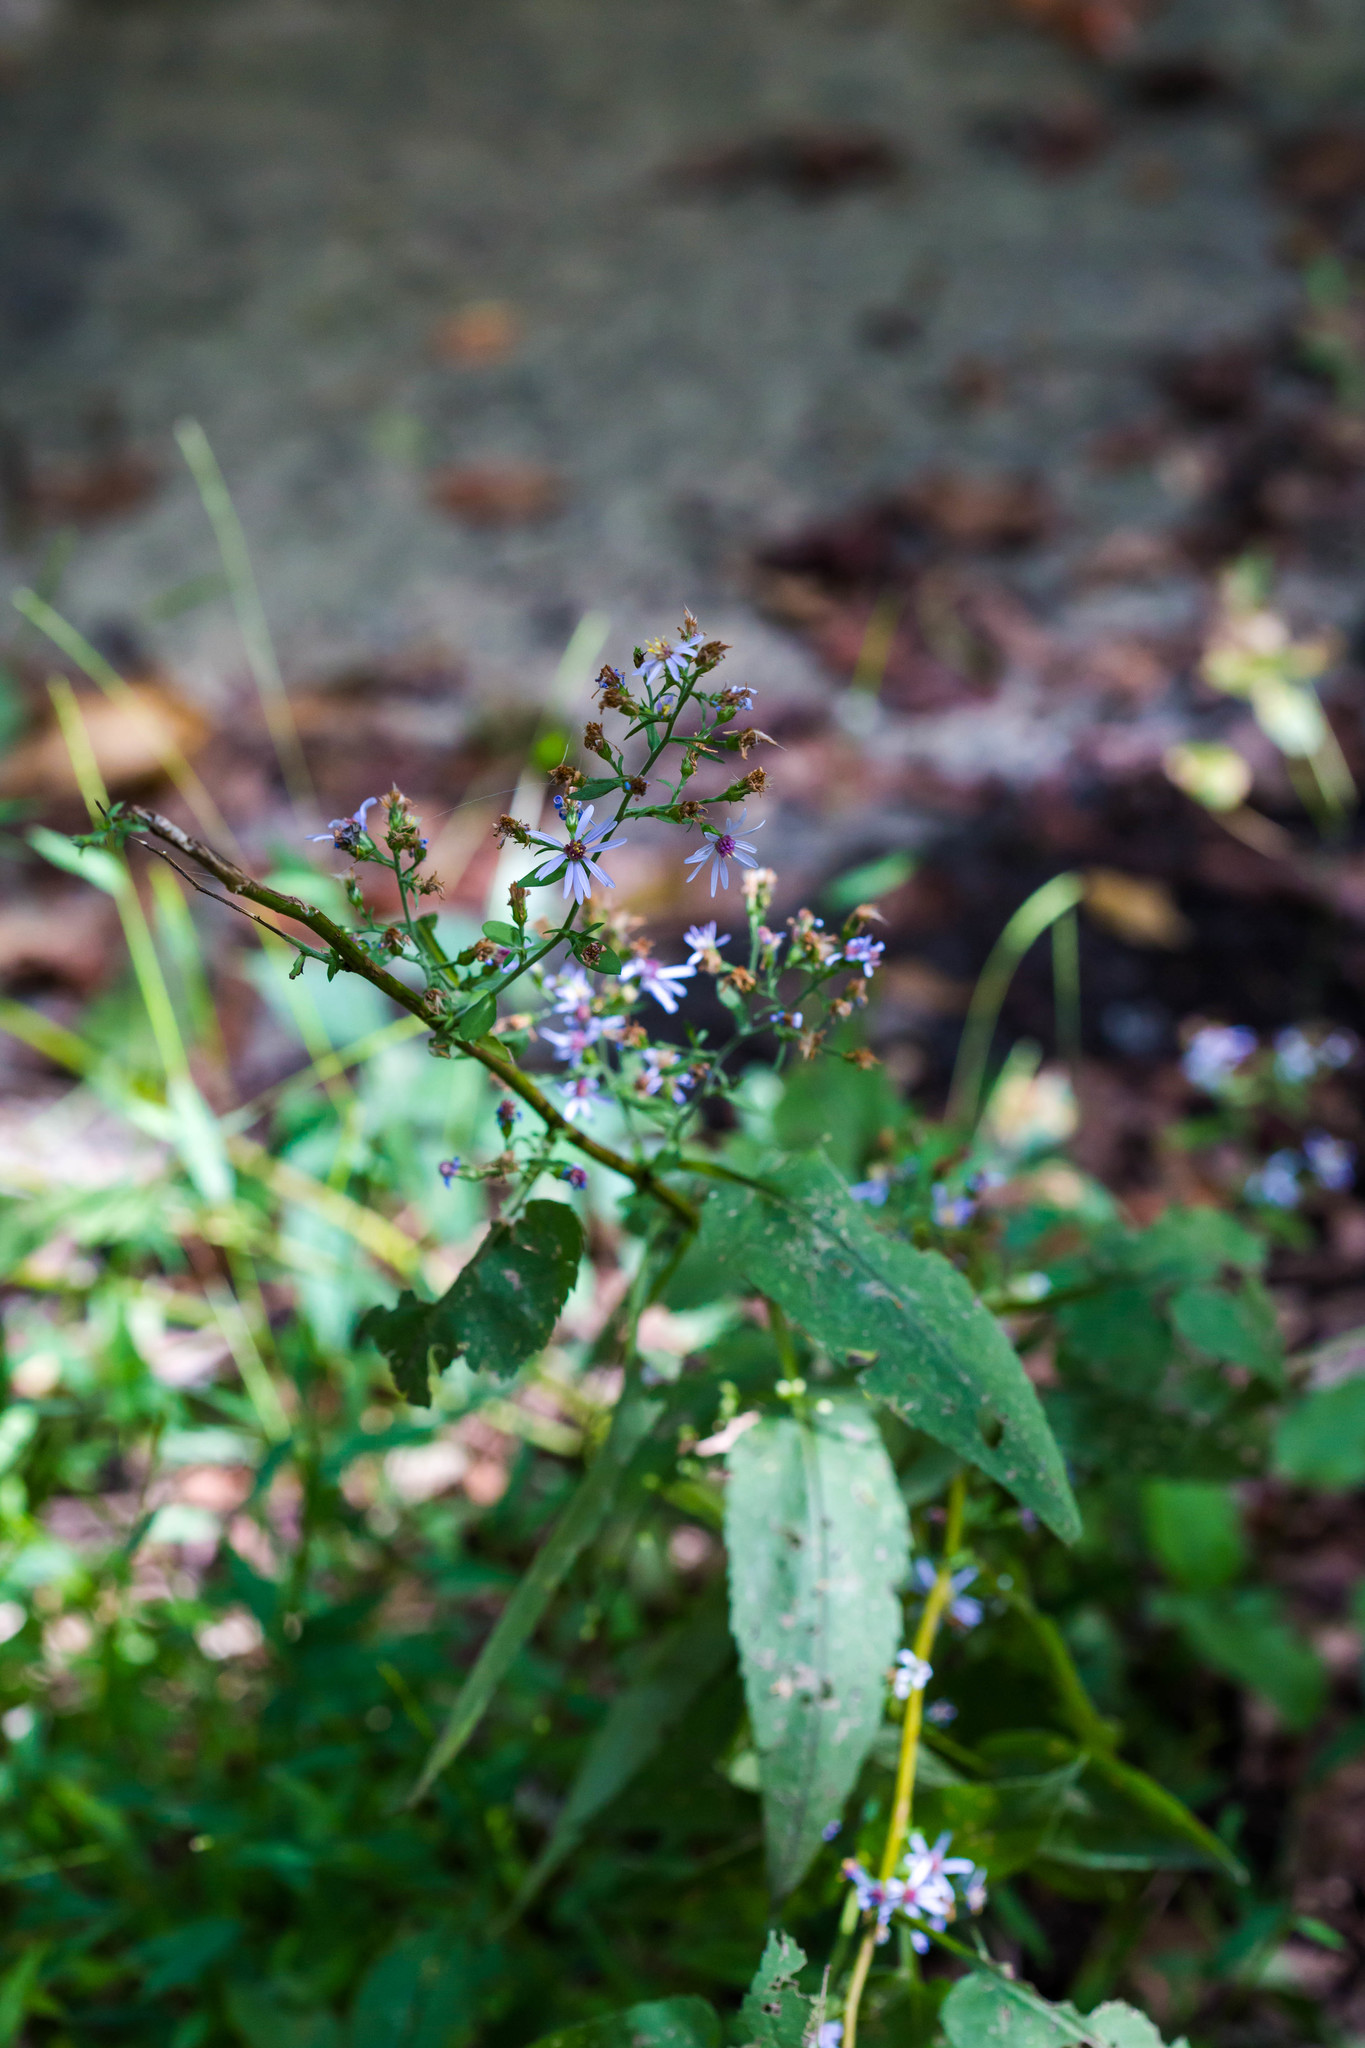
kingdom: Plantae
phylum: Tracheophyta
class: Magnoliopsida
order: Asterales
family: Asteraceae
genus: Symphyotrichum
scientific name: Symphyotrichum cordifolium
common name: Beeweed
